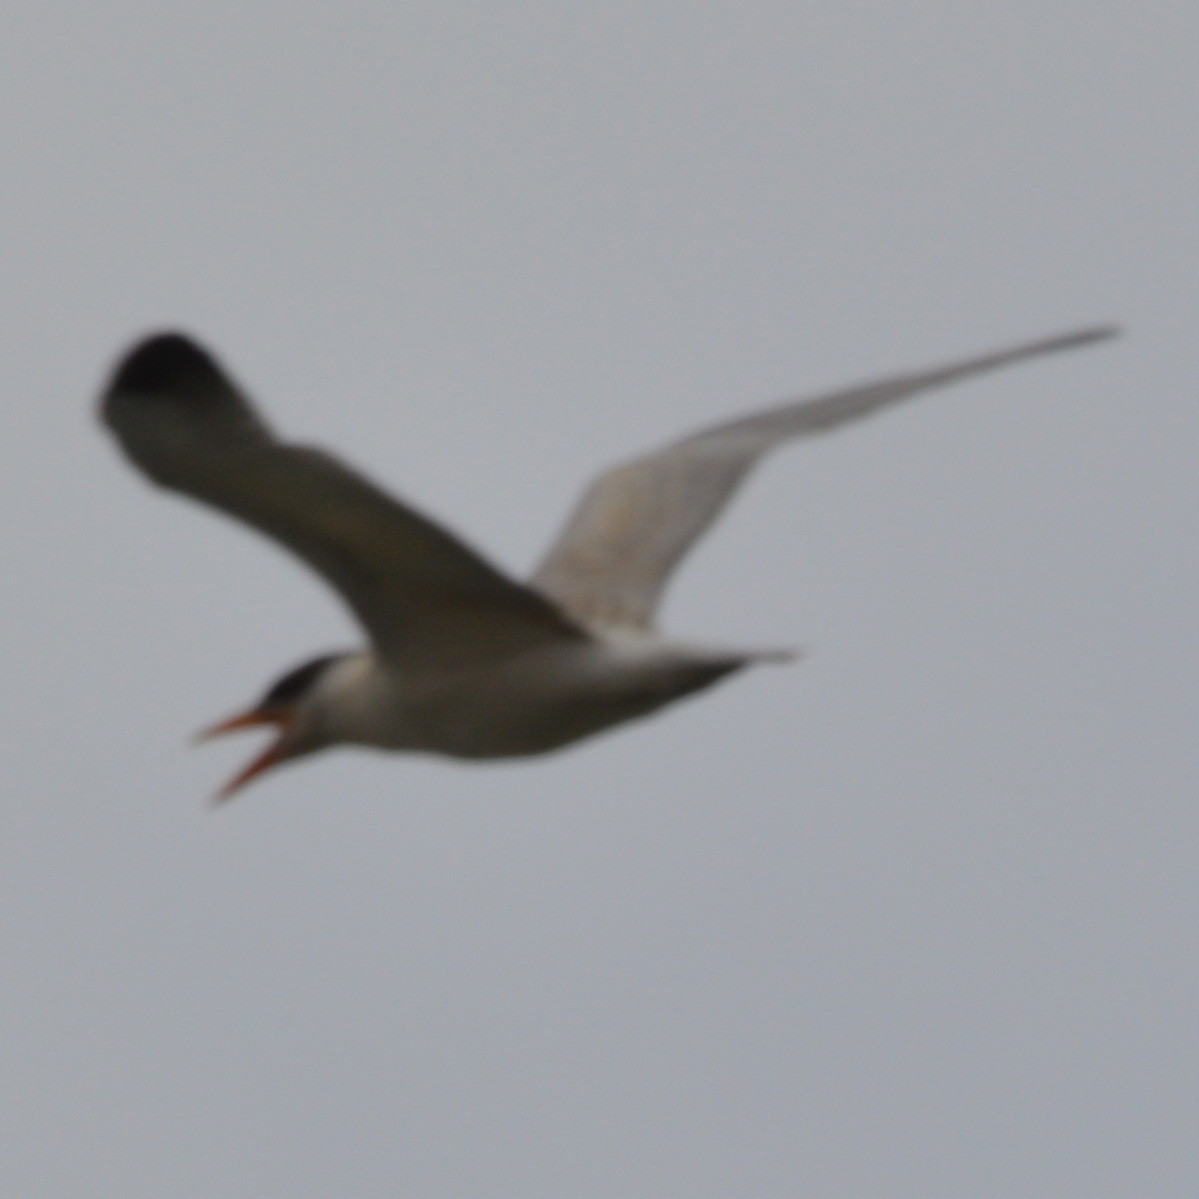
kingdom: Animalia
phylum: Chordata
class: Aves
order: Charadriiformes
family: Laridae
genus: Hydroprogne
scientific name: Hydroprogne caspia
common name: Caspian tern
